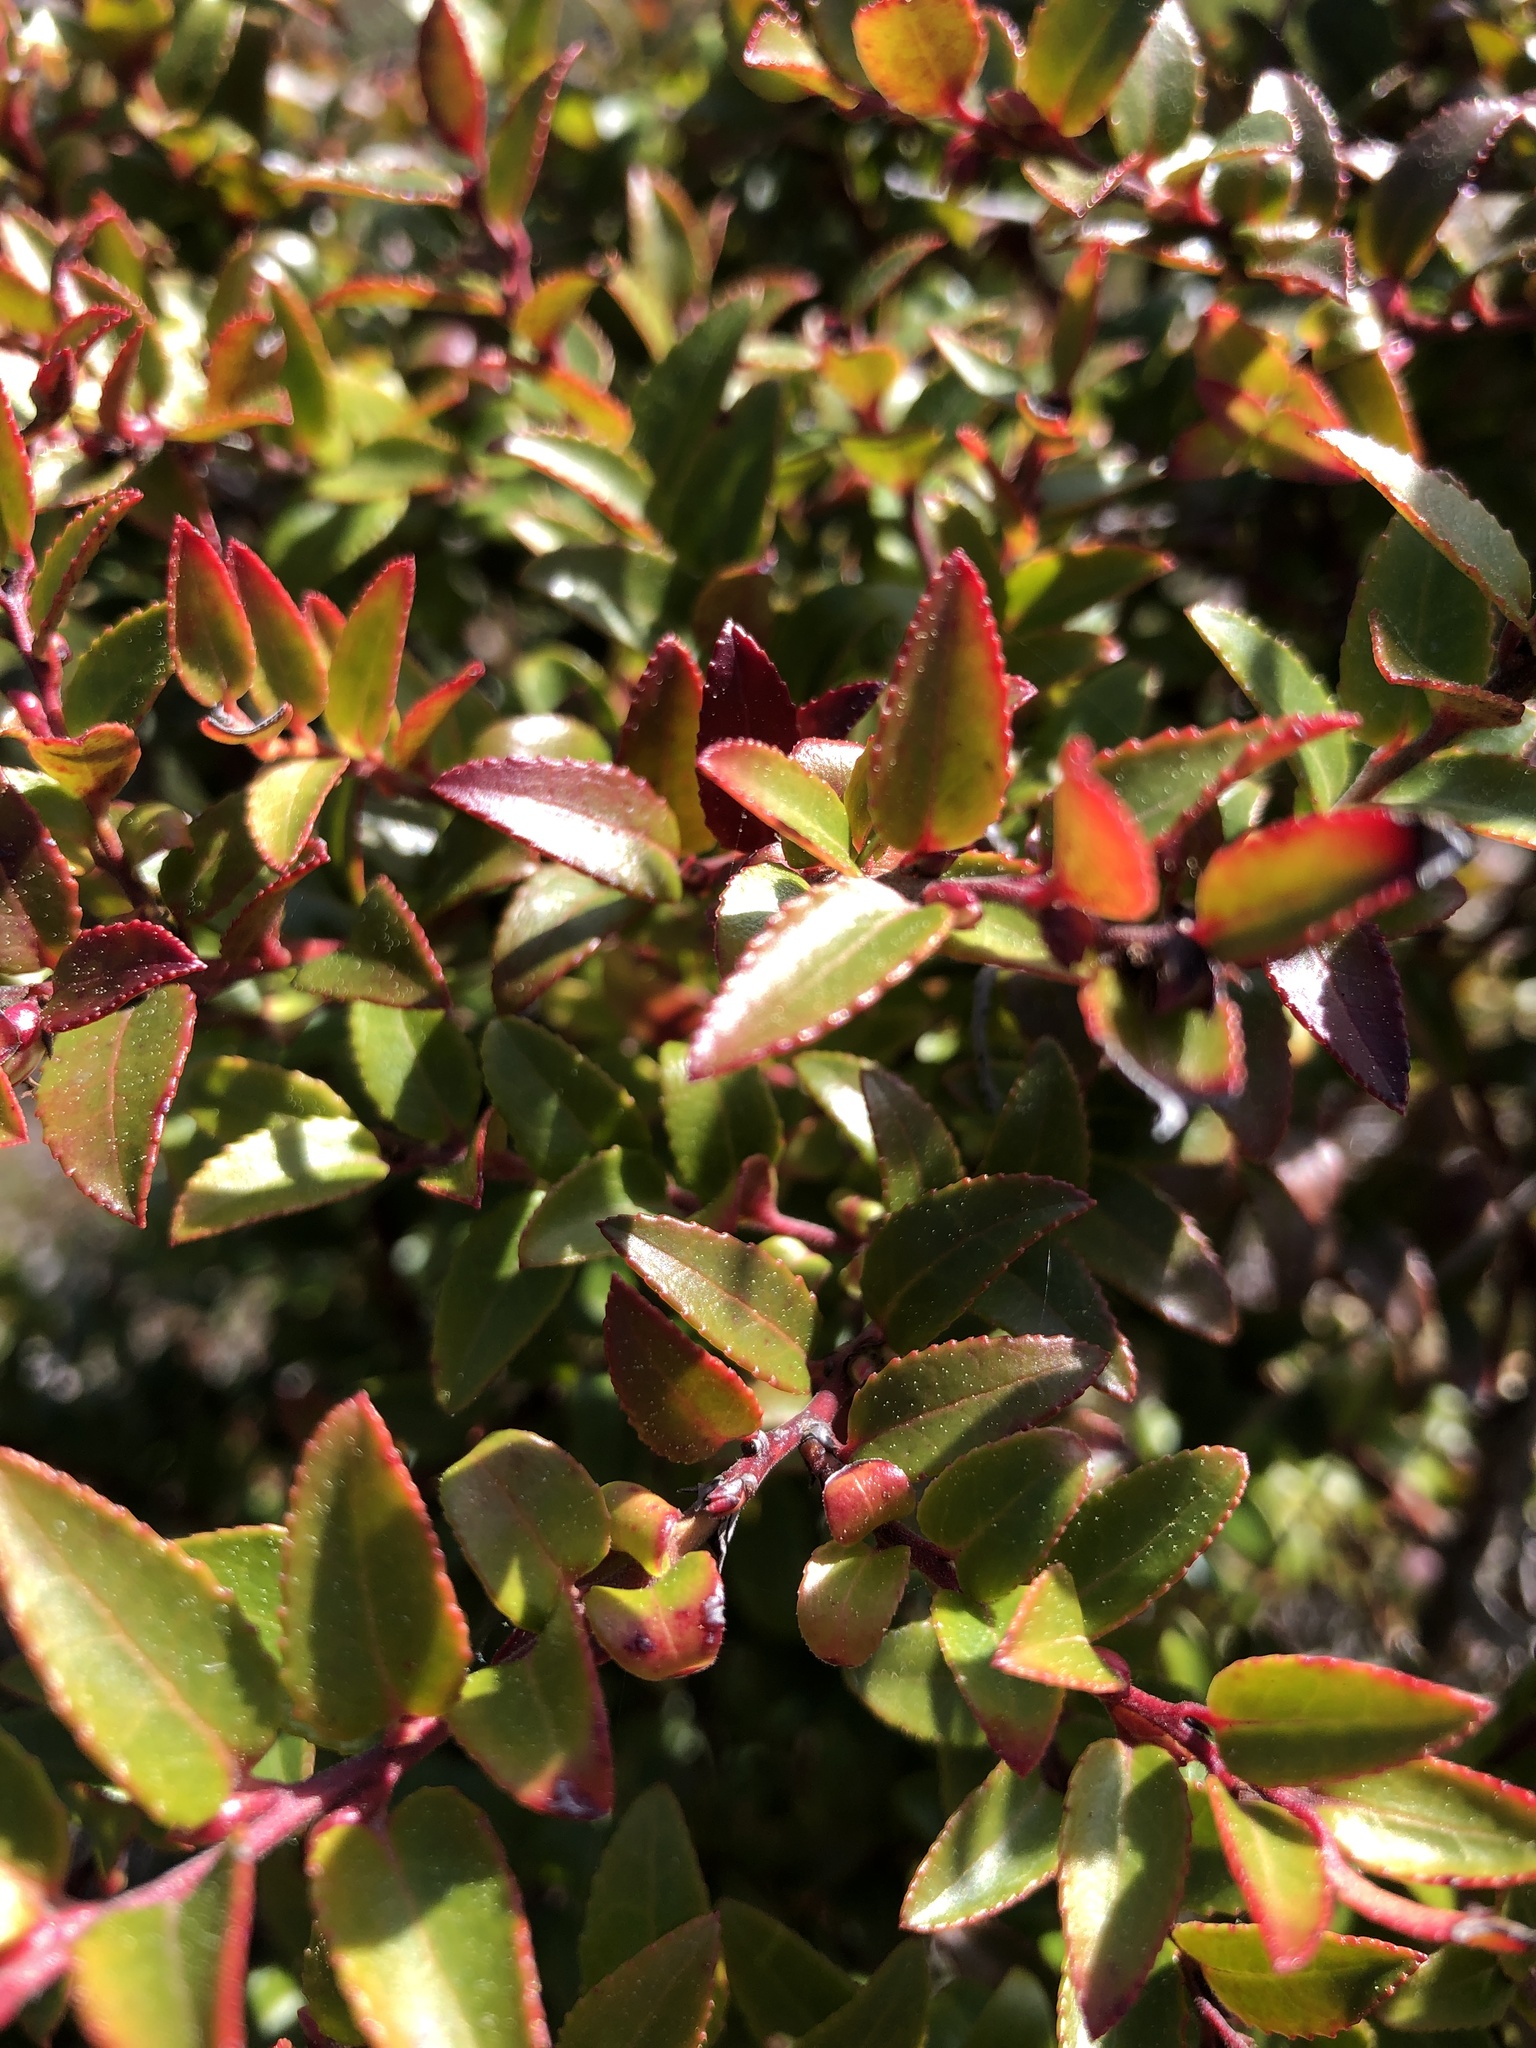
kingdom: Plantae
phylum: Tracheophyta
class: Magnoliopsida
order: Ericales
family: Ericaceae
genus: Vaccinium
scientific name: Vaccinium ovatum
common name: California-huckleberry
